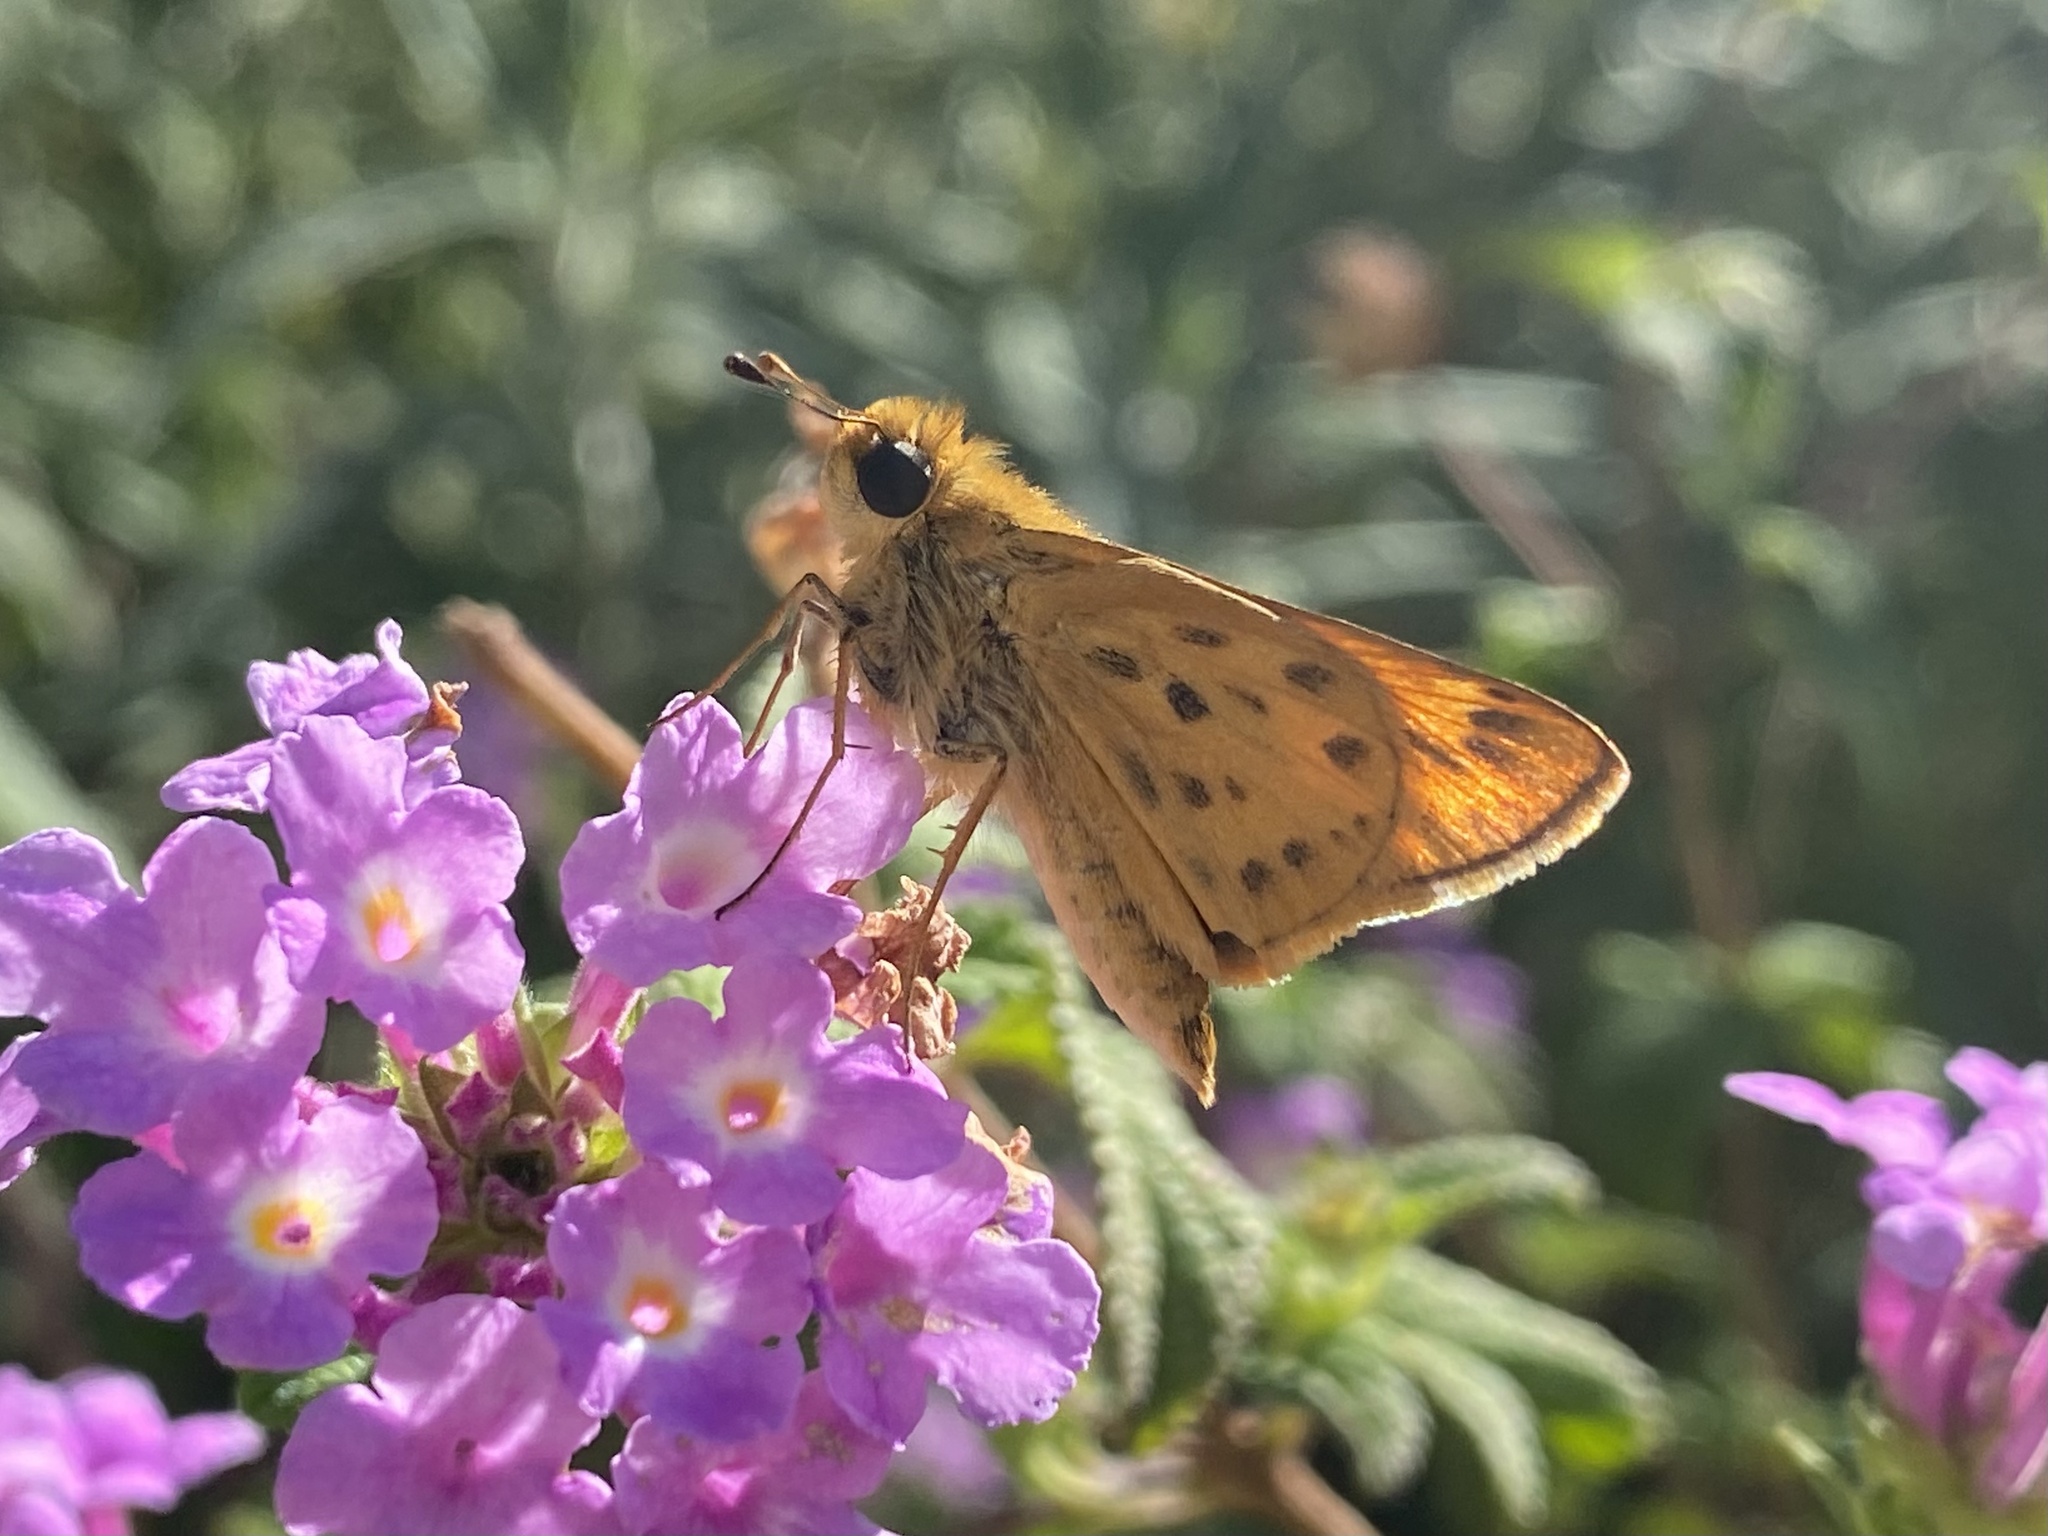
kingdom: Animalia
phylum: Arthropoda
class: Insecta
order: Lepidoptera
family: Hesperiidae
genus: Hylephila
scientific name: Hylephila phyleus
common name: Fiery skipper
